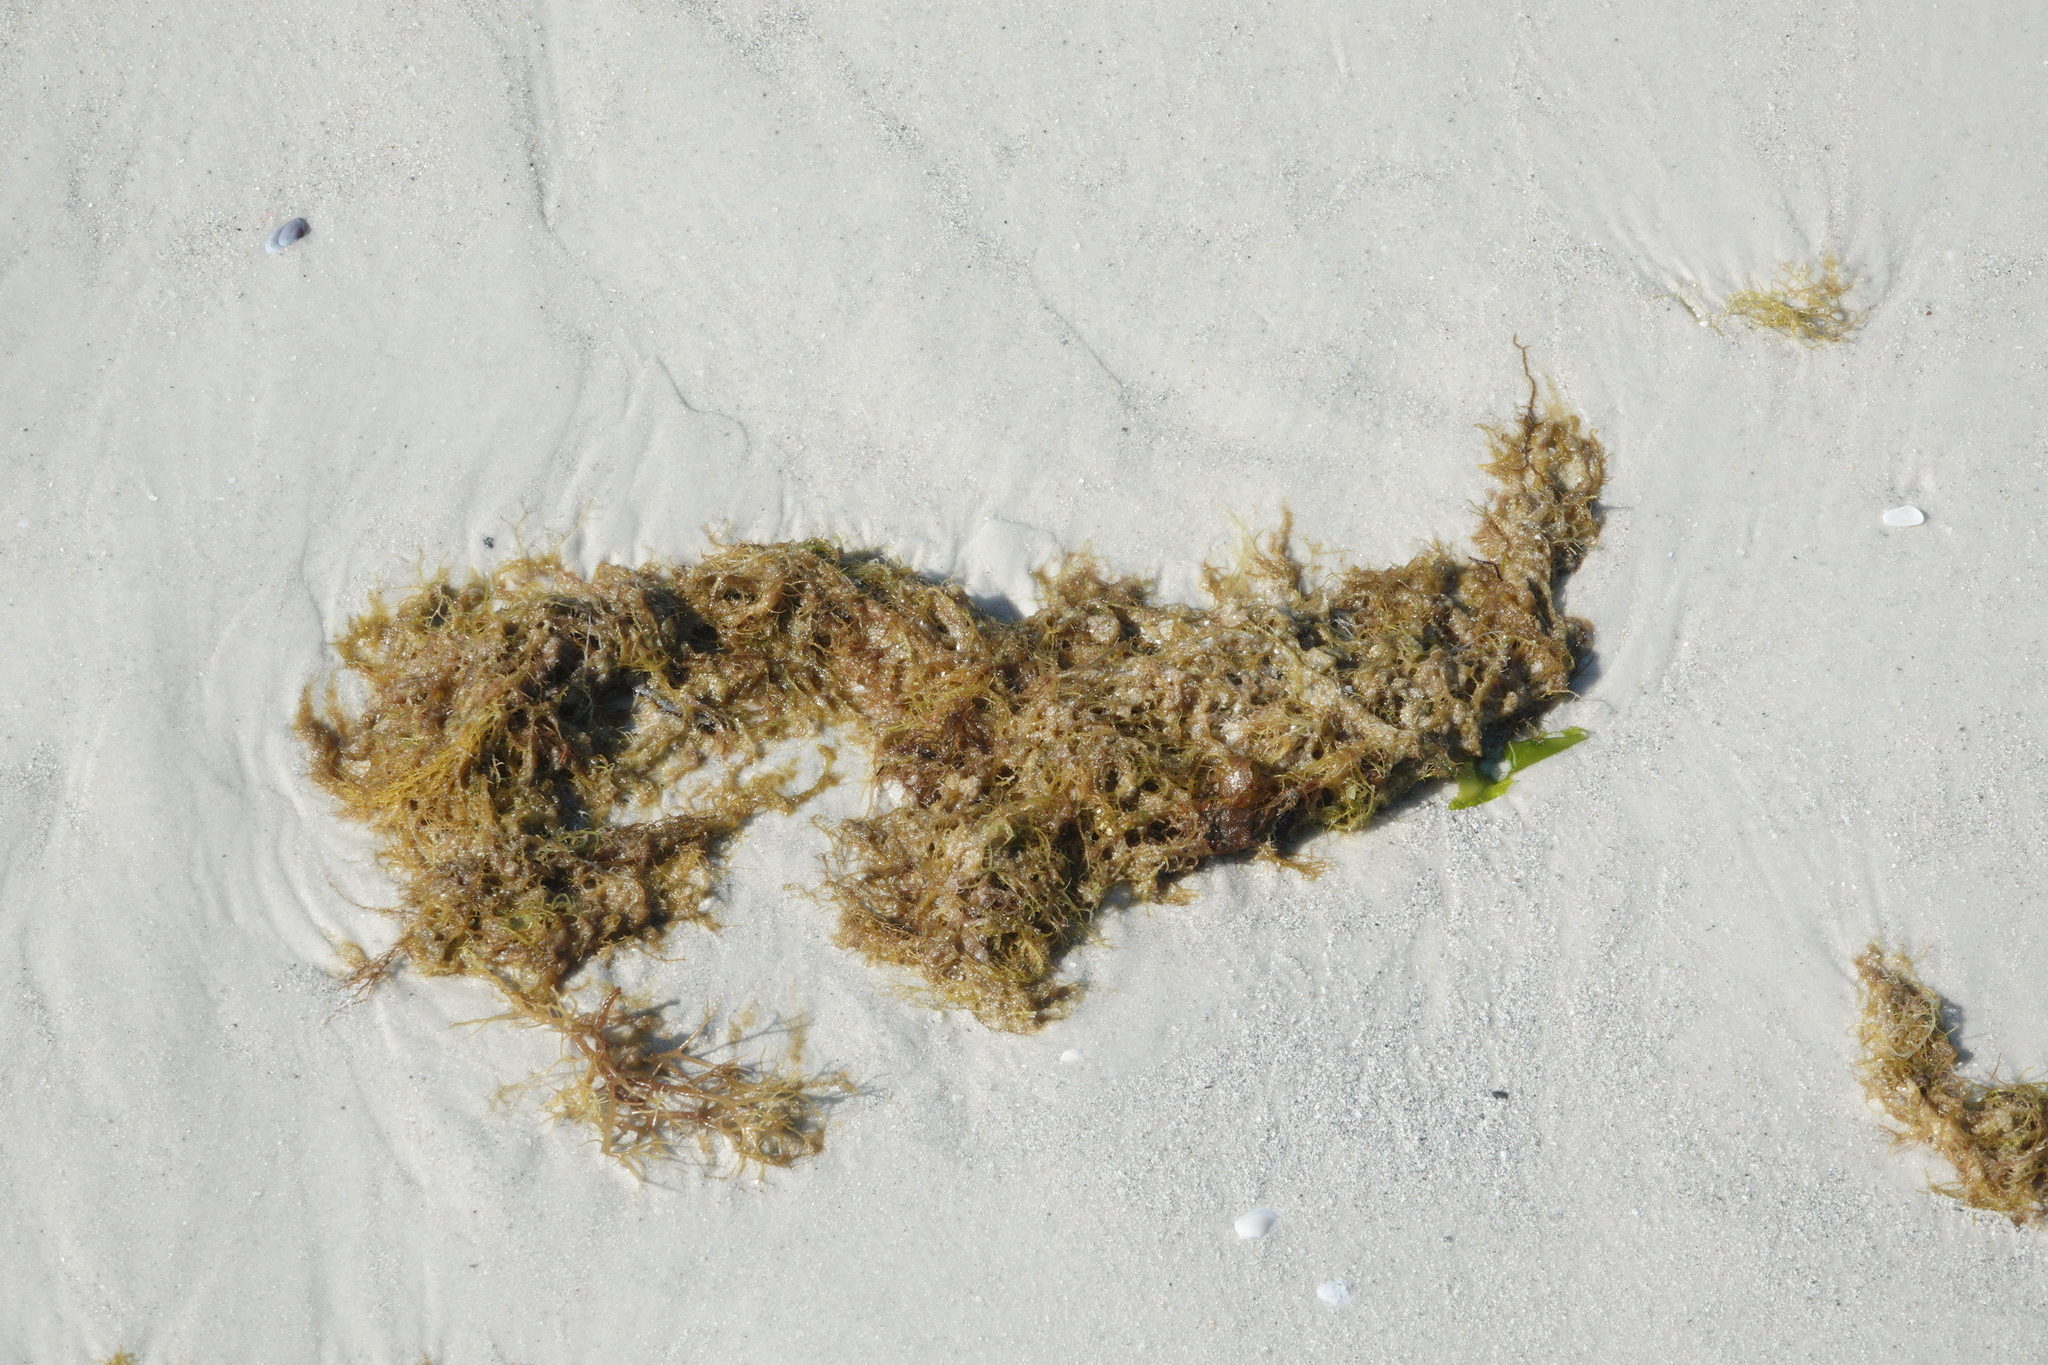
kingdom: Chromista
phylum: Ochrophyta
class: Phaeophyceae
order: Fucales
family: Sargassaceae
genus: Sargassum
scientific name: Sargassum fluitans
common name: Sargassum seaweed
